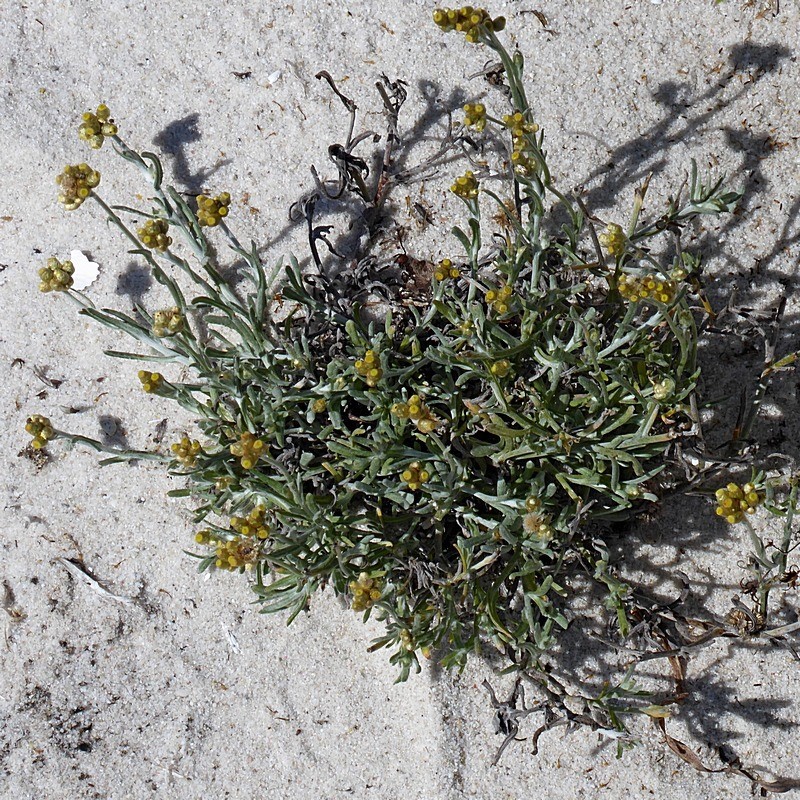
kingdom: Plantae
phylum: Tracheophyta
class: Magnoliopsida
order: Asterales
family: Asteraceae
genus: Helichrysum
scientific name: Helichrysum luteoalbum
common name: Daisy
